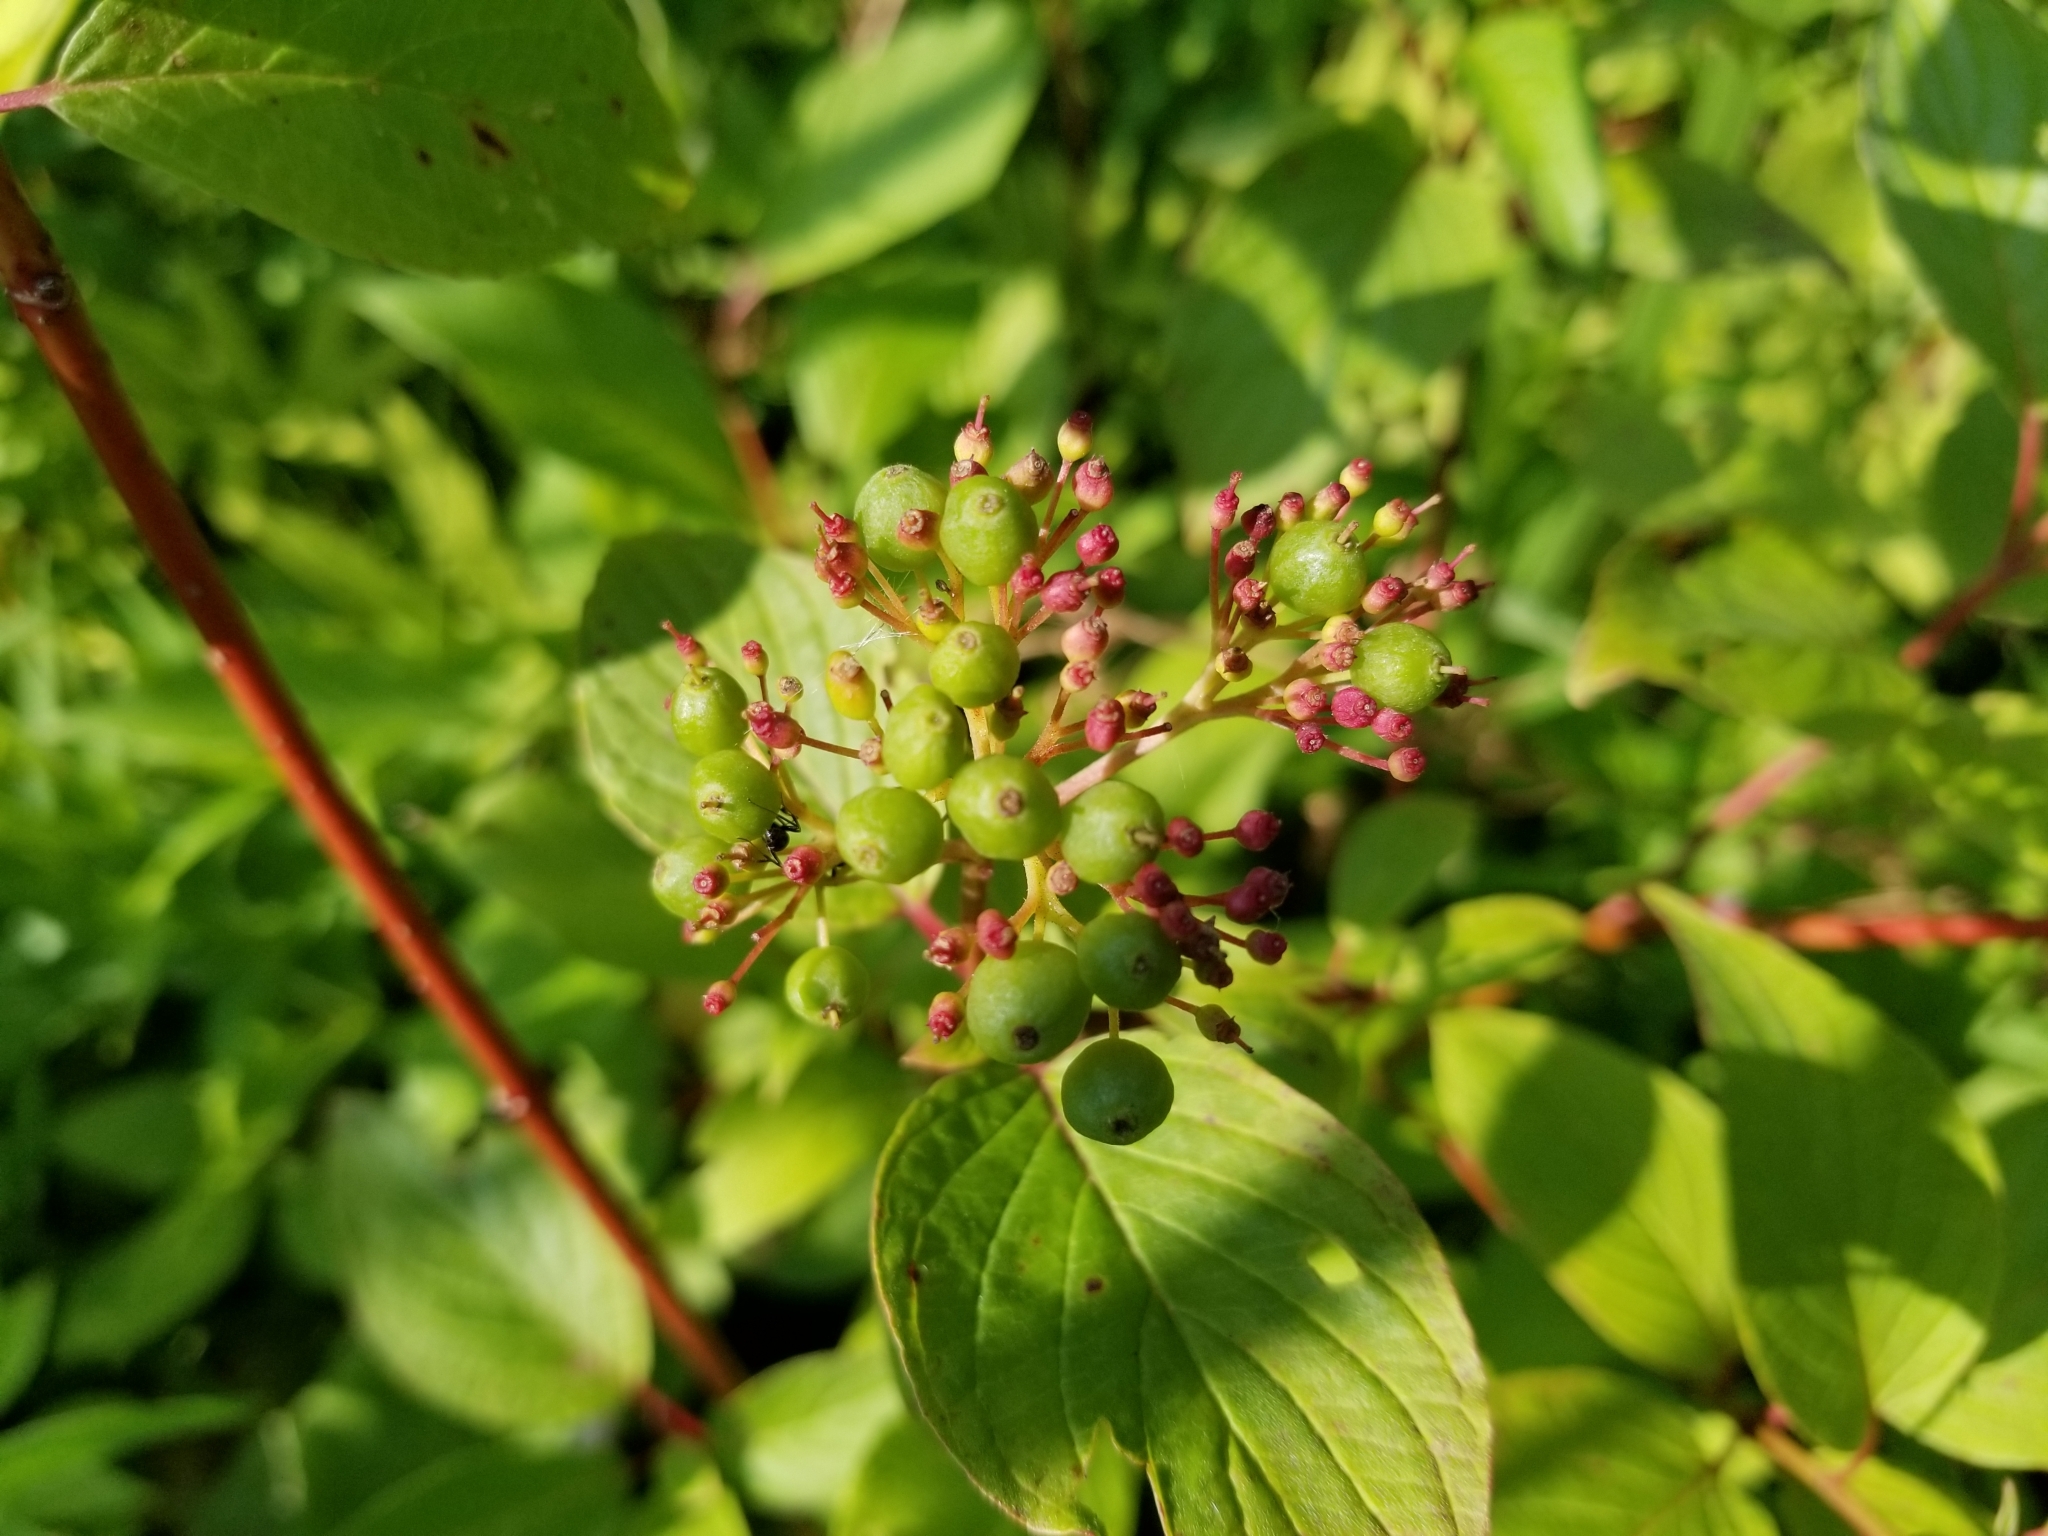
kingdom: Plantae
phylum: Tracheophyta
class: Magnoliopsida
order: Cornales
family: Cornaceae
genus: Cornus
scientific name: Cornus sericea
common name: Red-osier dogwood
